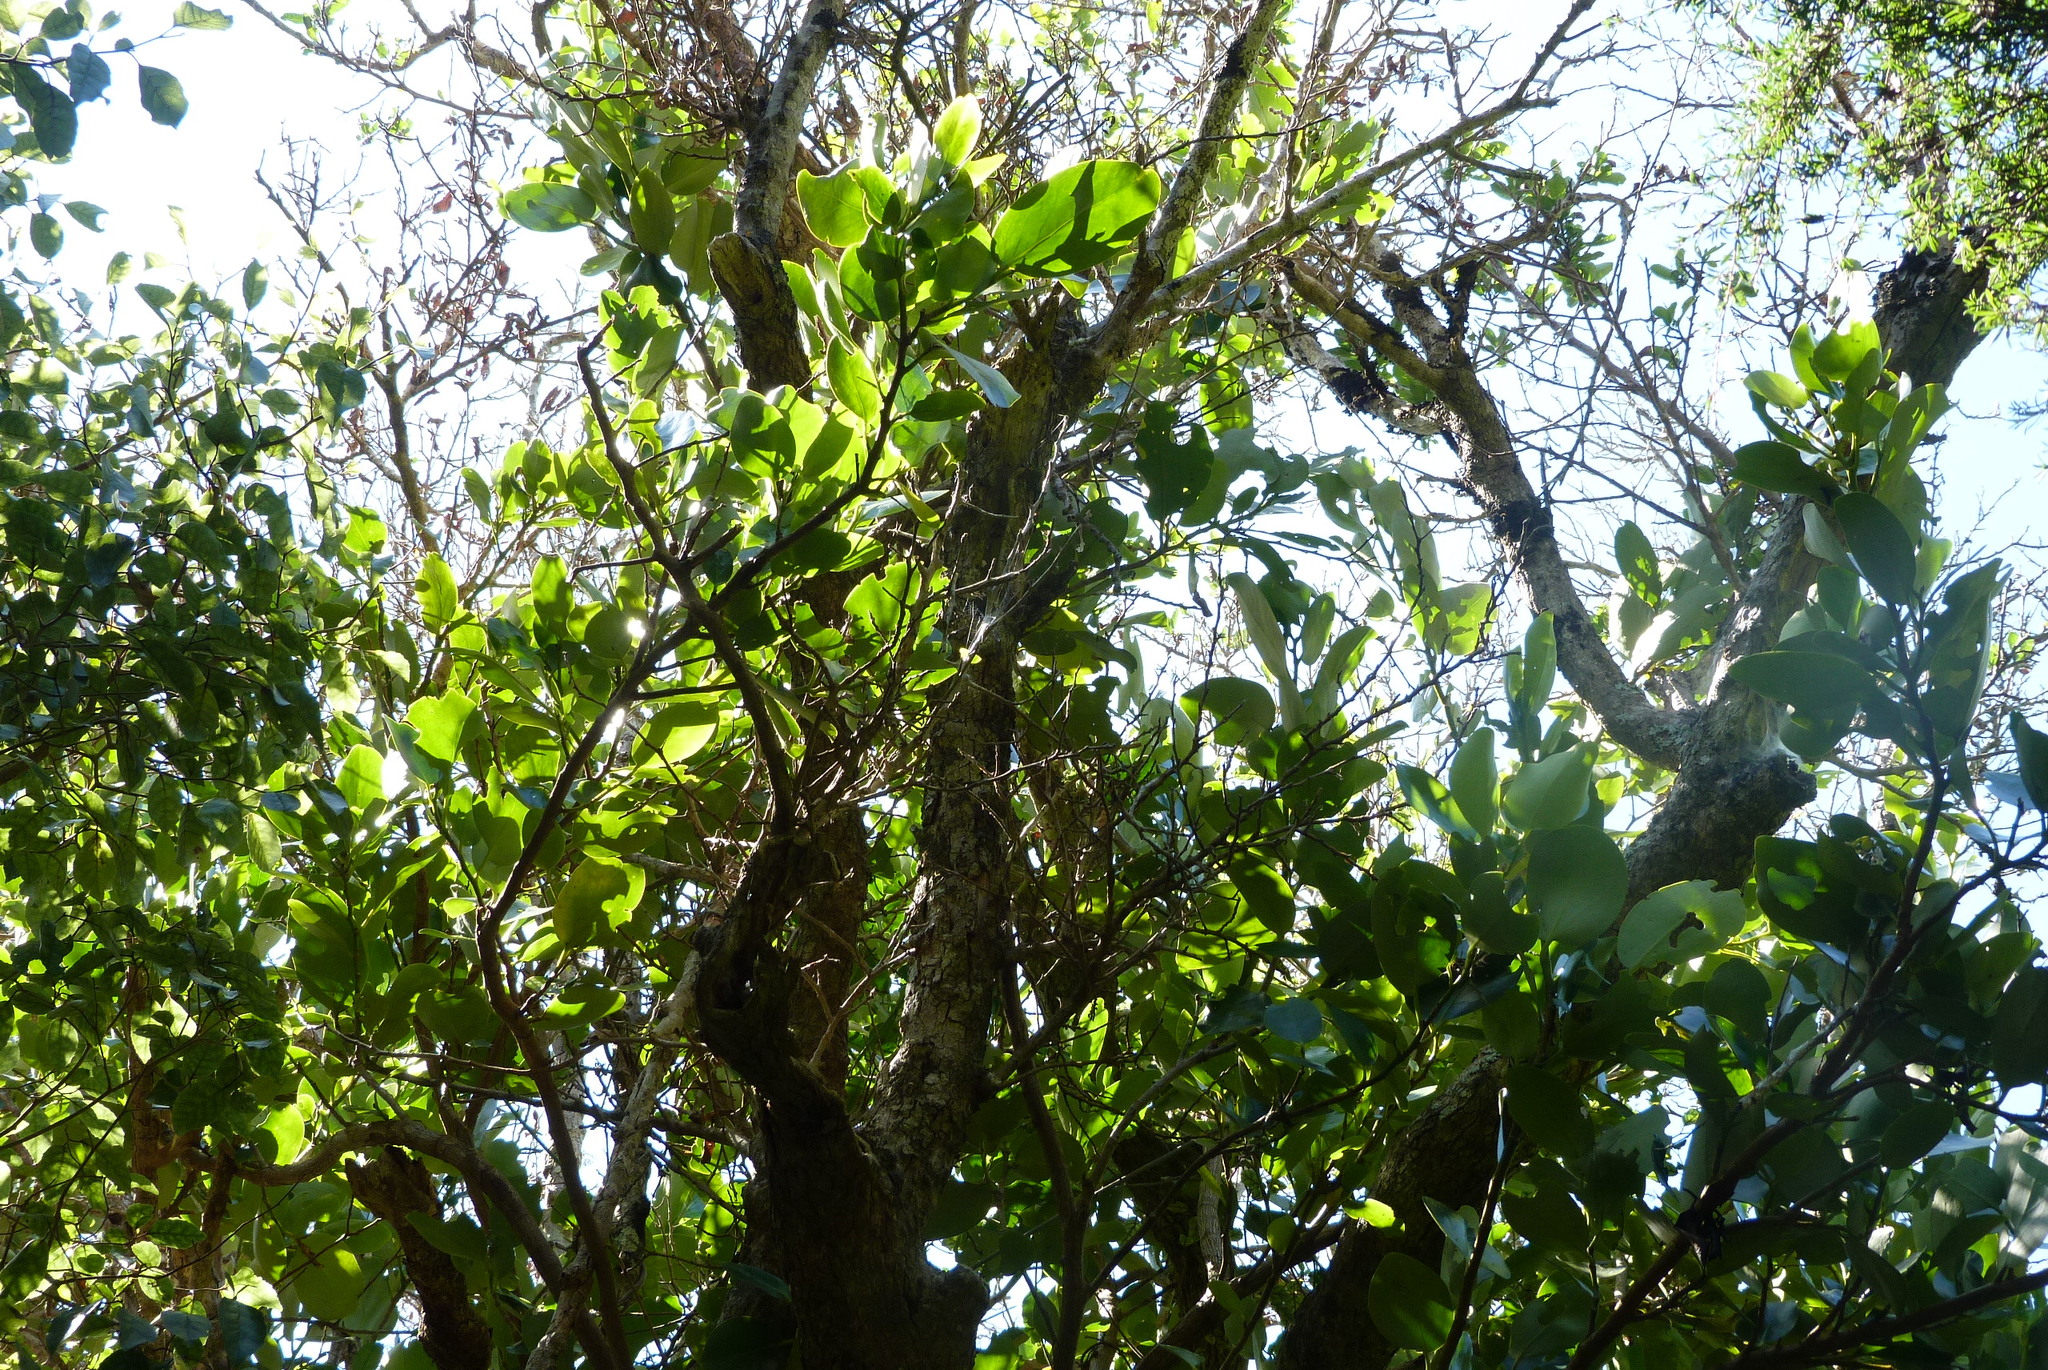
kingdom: Plantae
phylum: Tracheophyta
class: Magnoliopsida
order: Apiales
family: Griseliniaceae
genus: Griselinia
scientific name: Griselinia lucida
